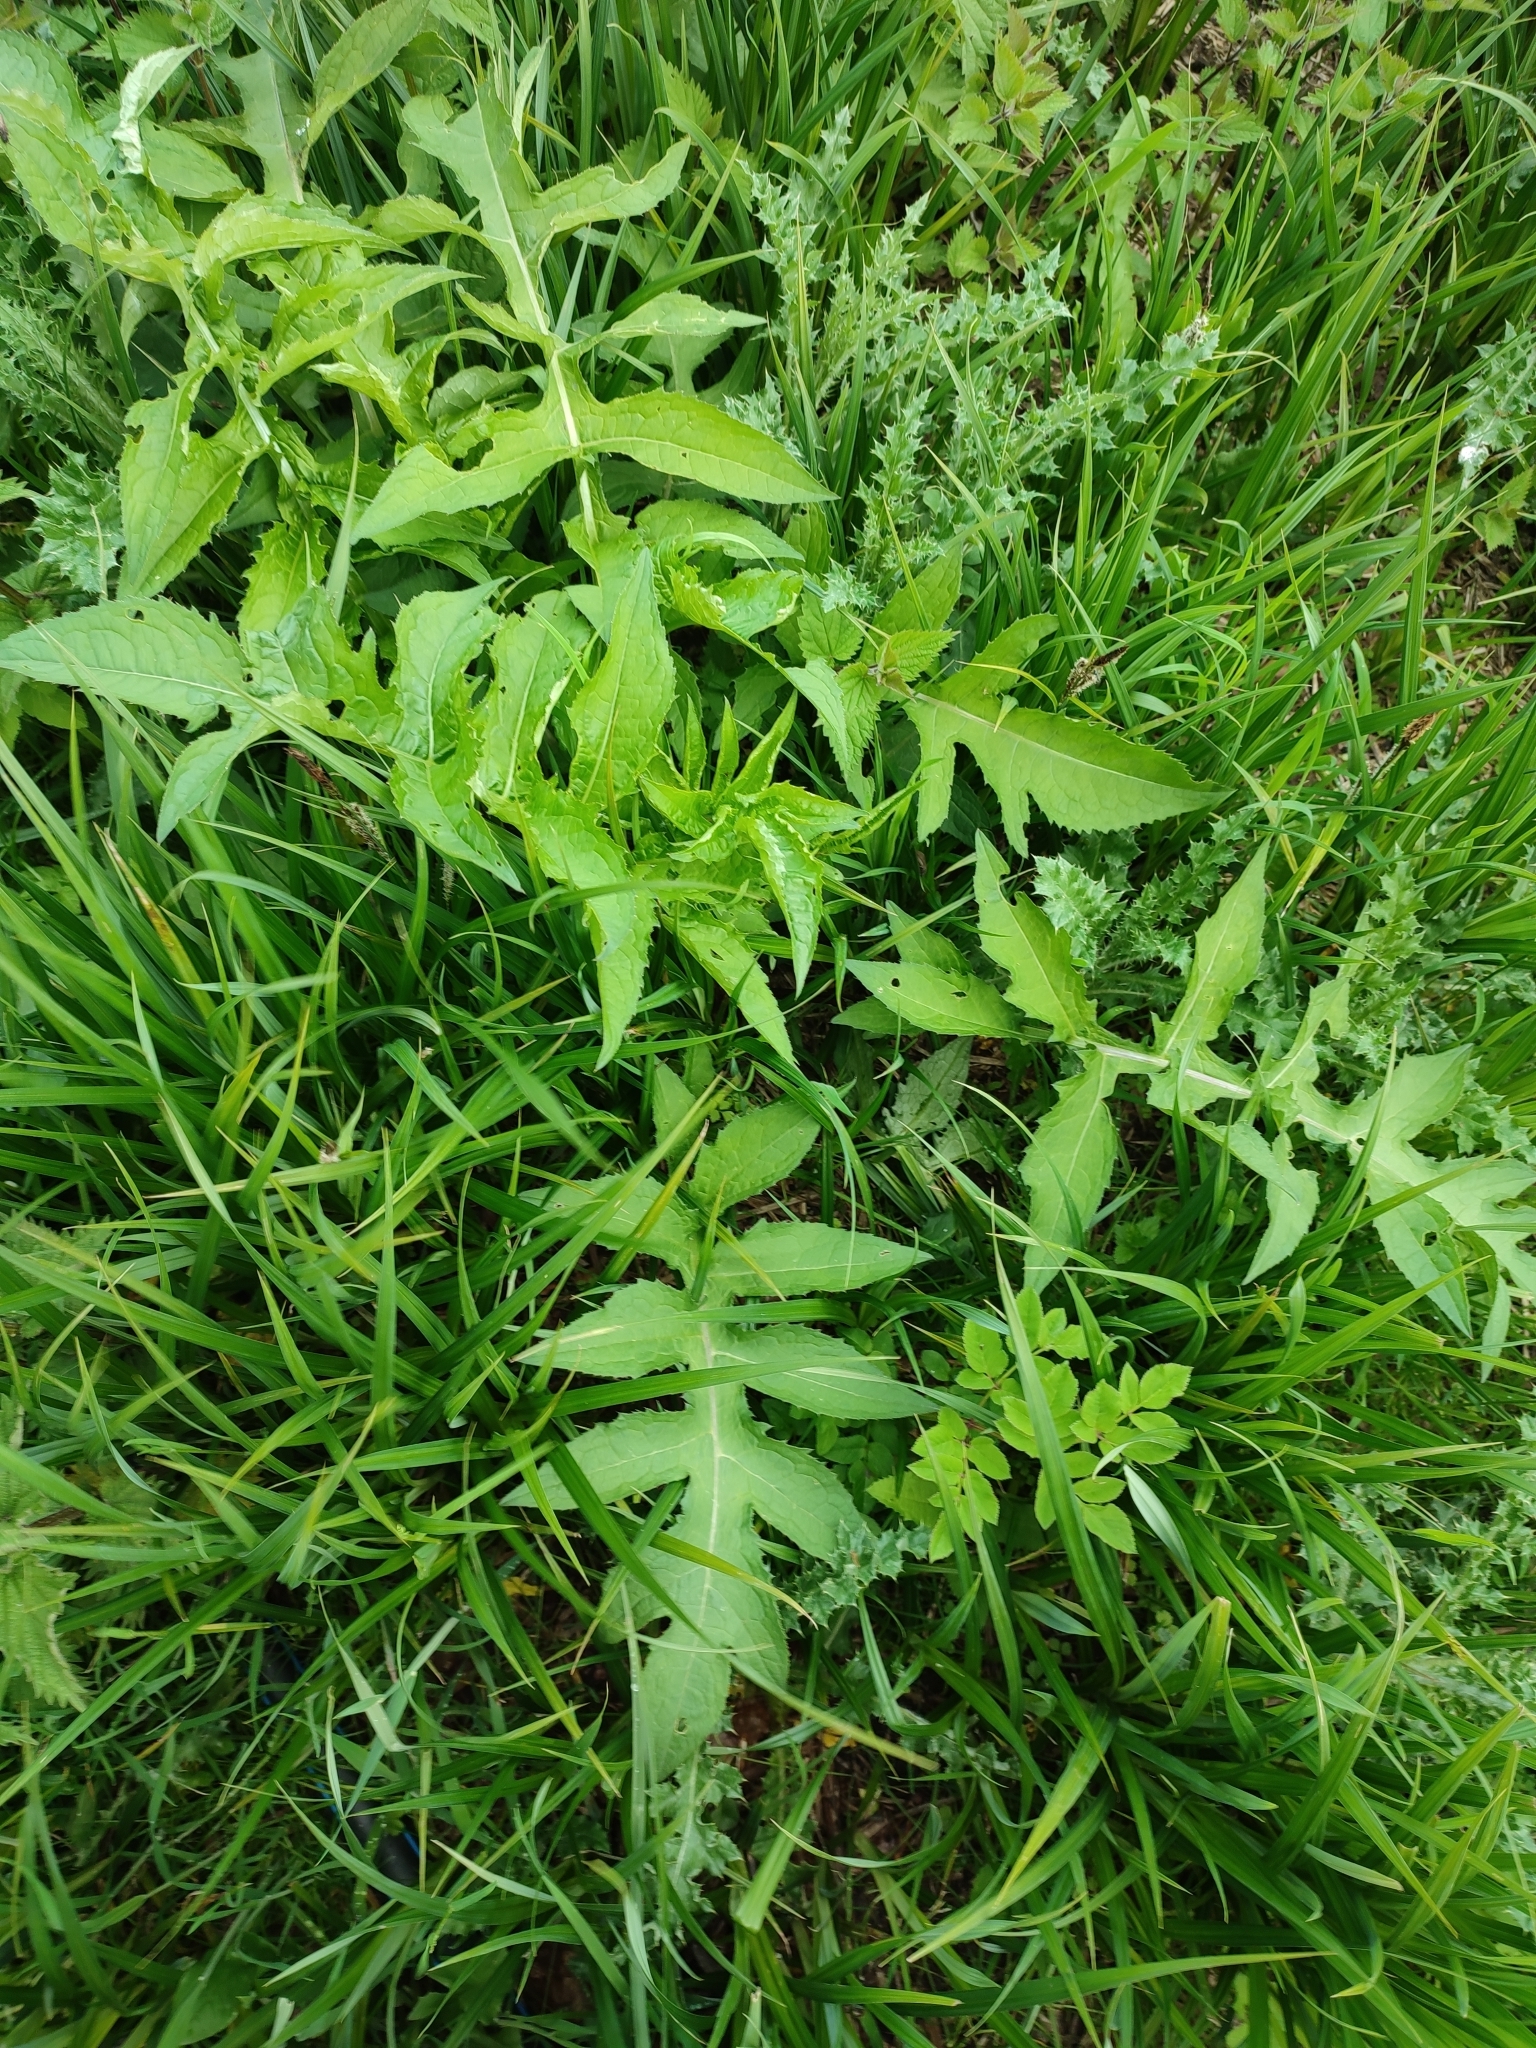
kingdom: Plantae
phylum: Tracheophyta
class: Magnoliopsida
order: Asterales
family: Asteraceae
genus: Cirsium
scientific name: Cirsium oleraceum
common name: Cabbage thistle
